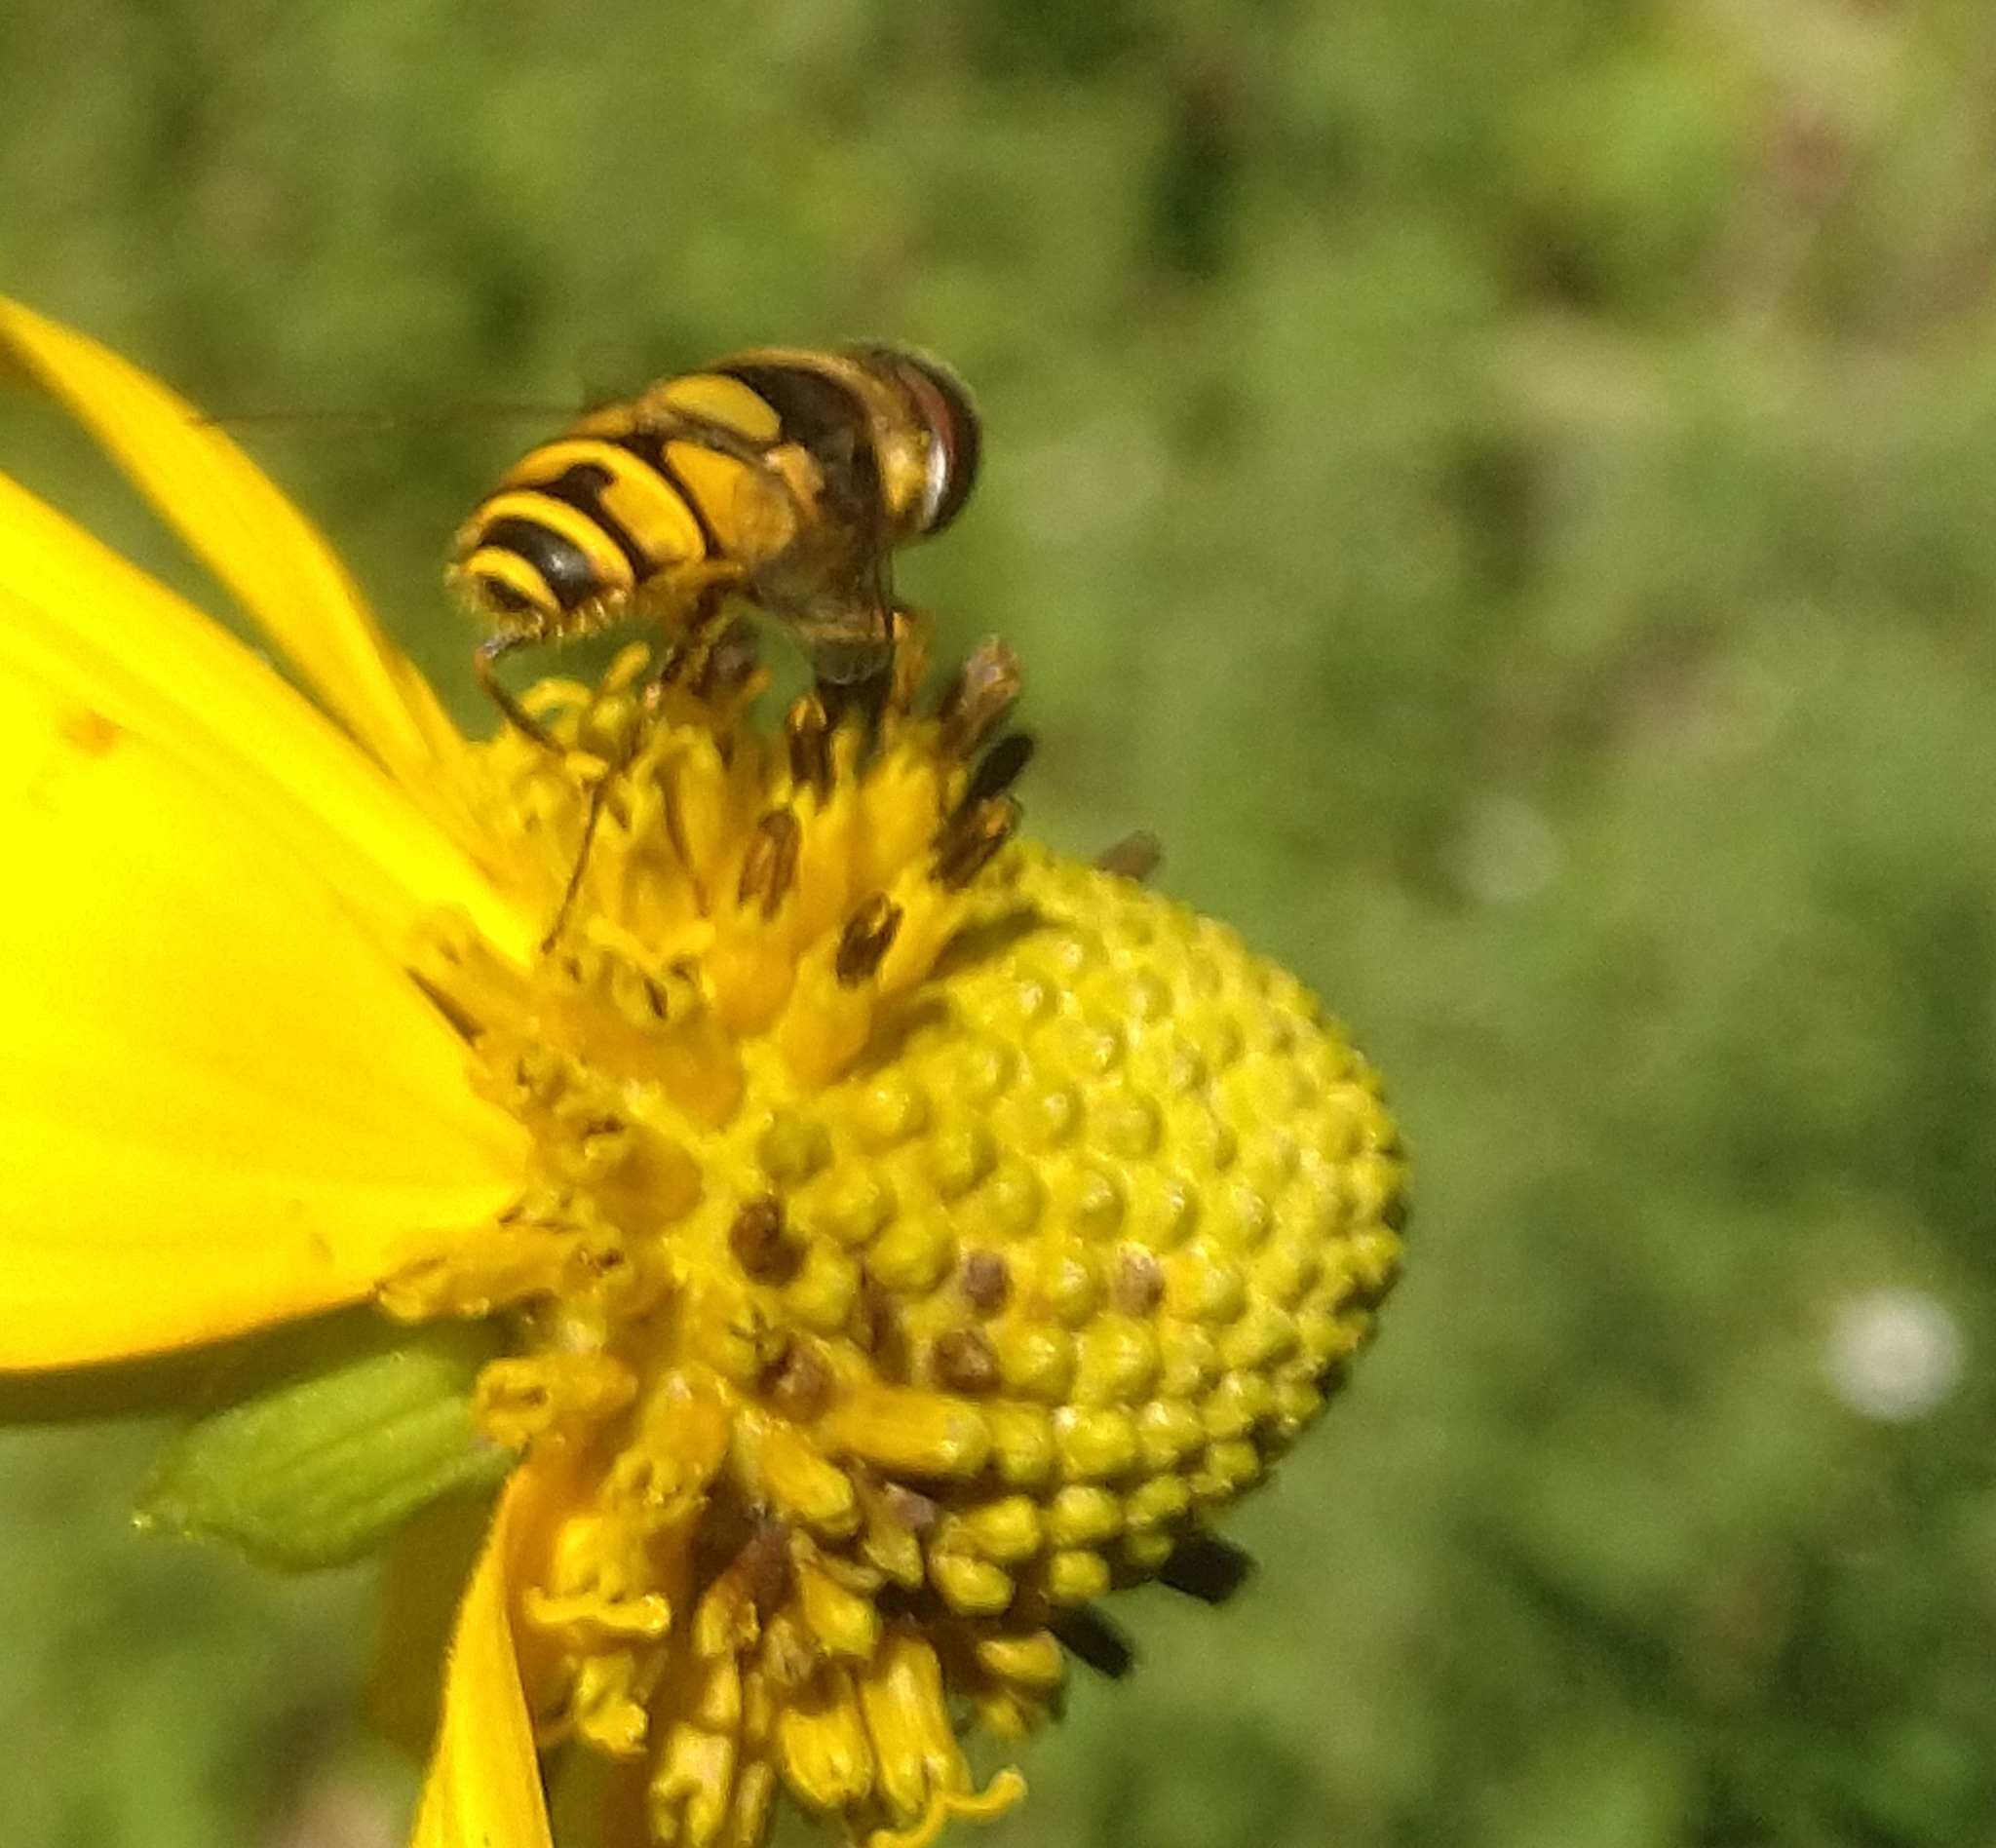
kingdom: Animalia
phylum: Arthropoda
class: Insecta
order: Diptera
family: Syrphidae
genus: Eristalis
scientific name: Eristalis transversa
